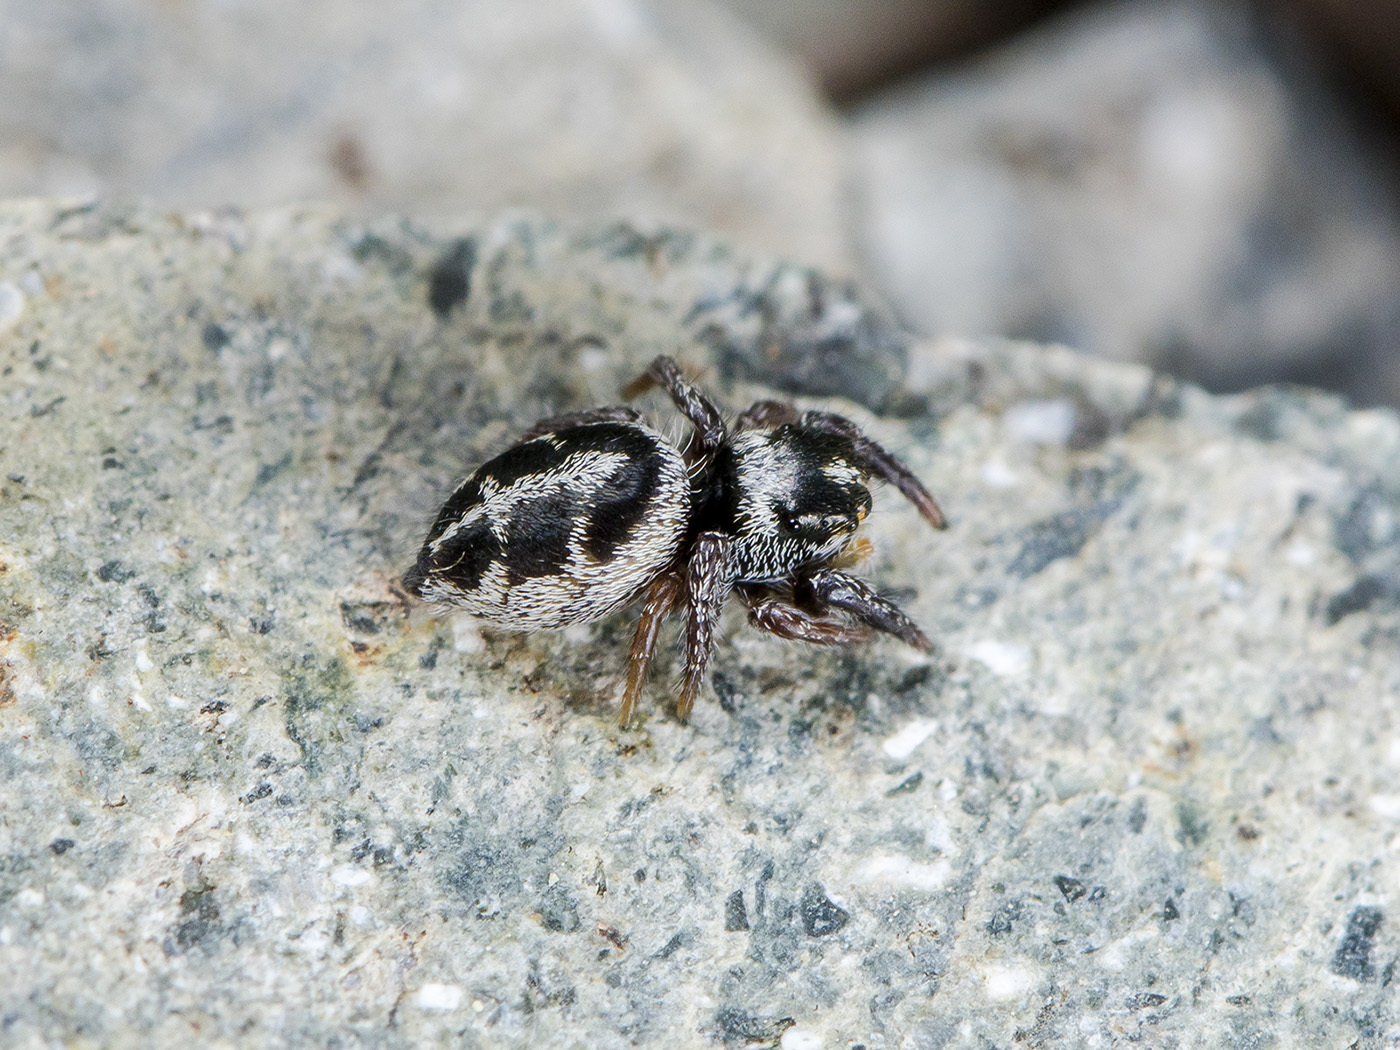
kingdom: Animalia
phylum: Arthropoda
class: Arachnida
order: Araneae
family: Salticidae
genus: Pellenes
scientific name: Pellenes allegrii
